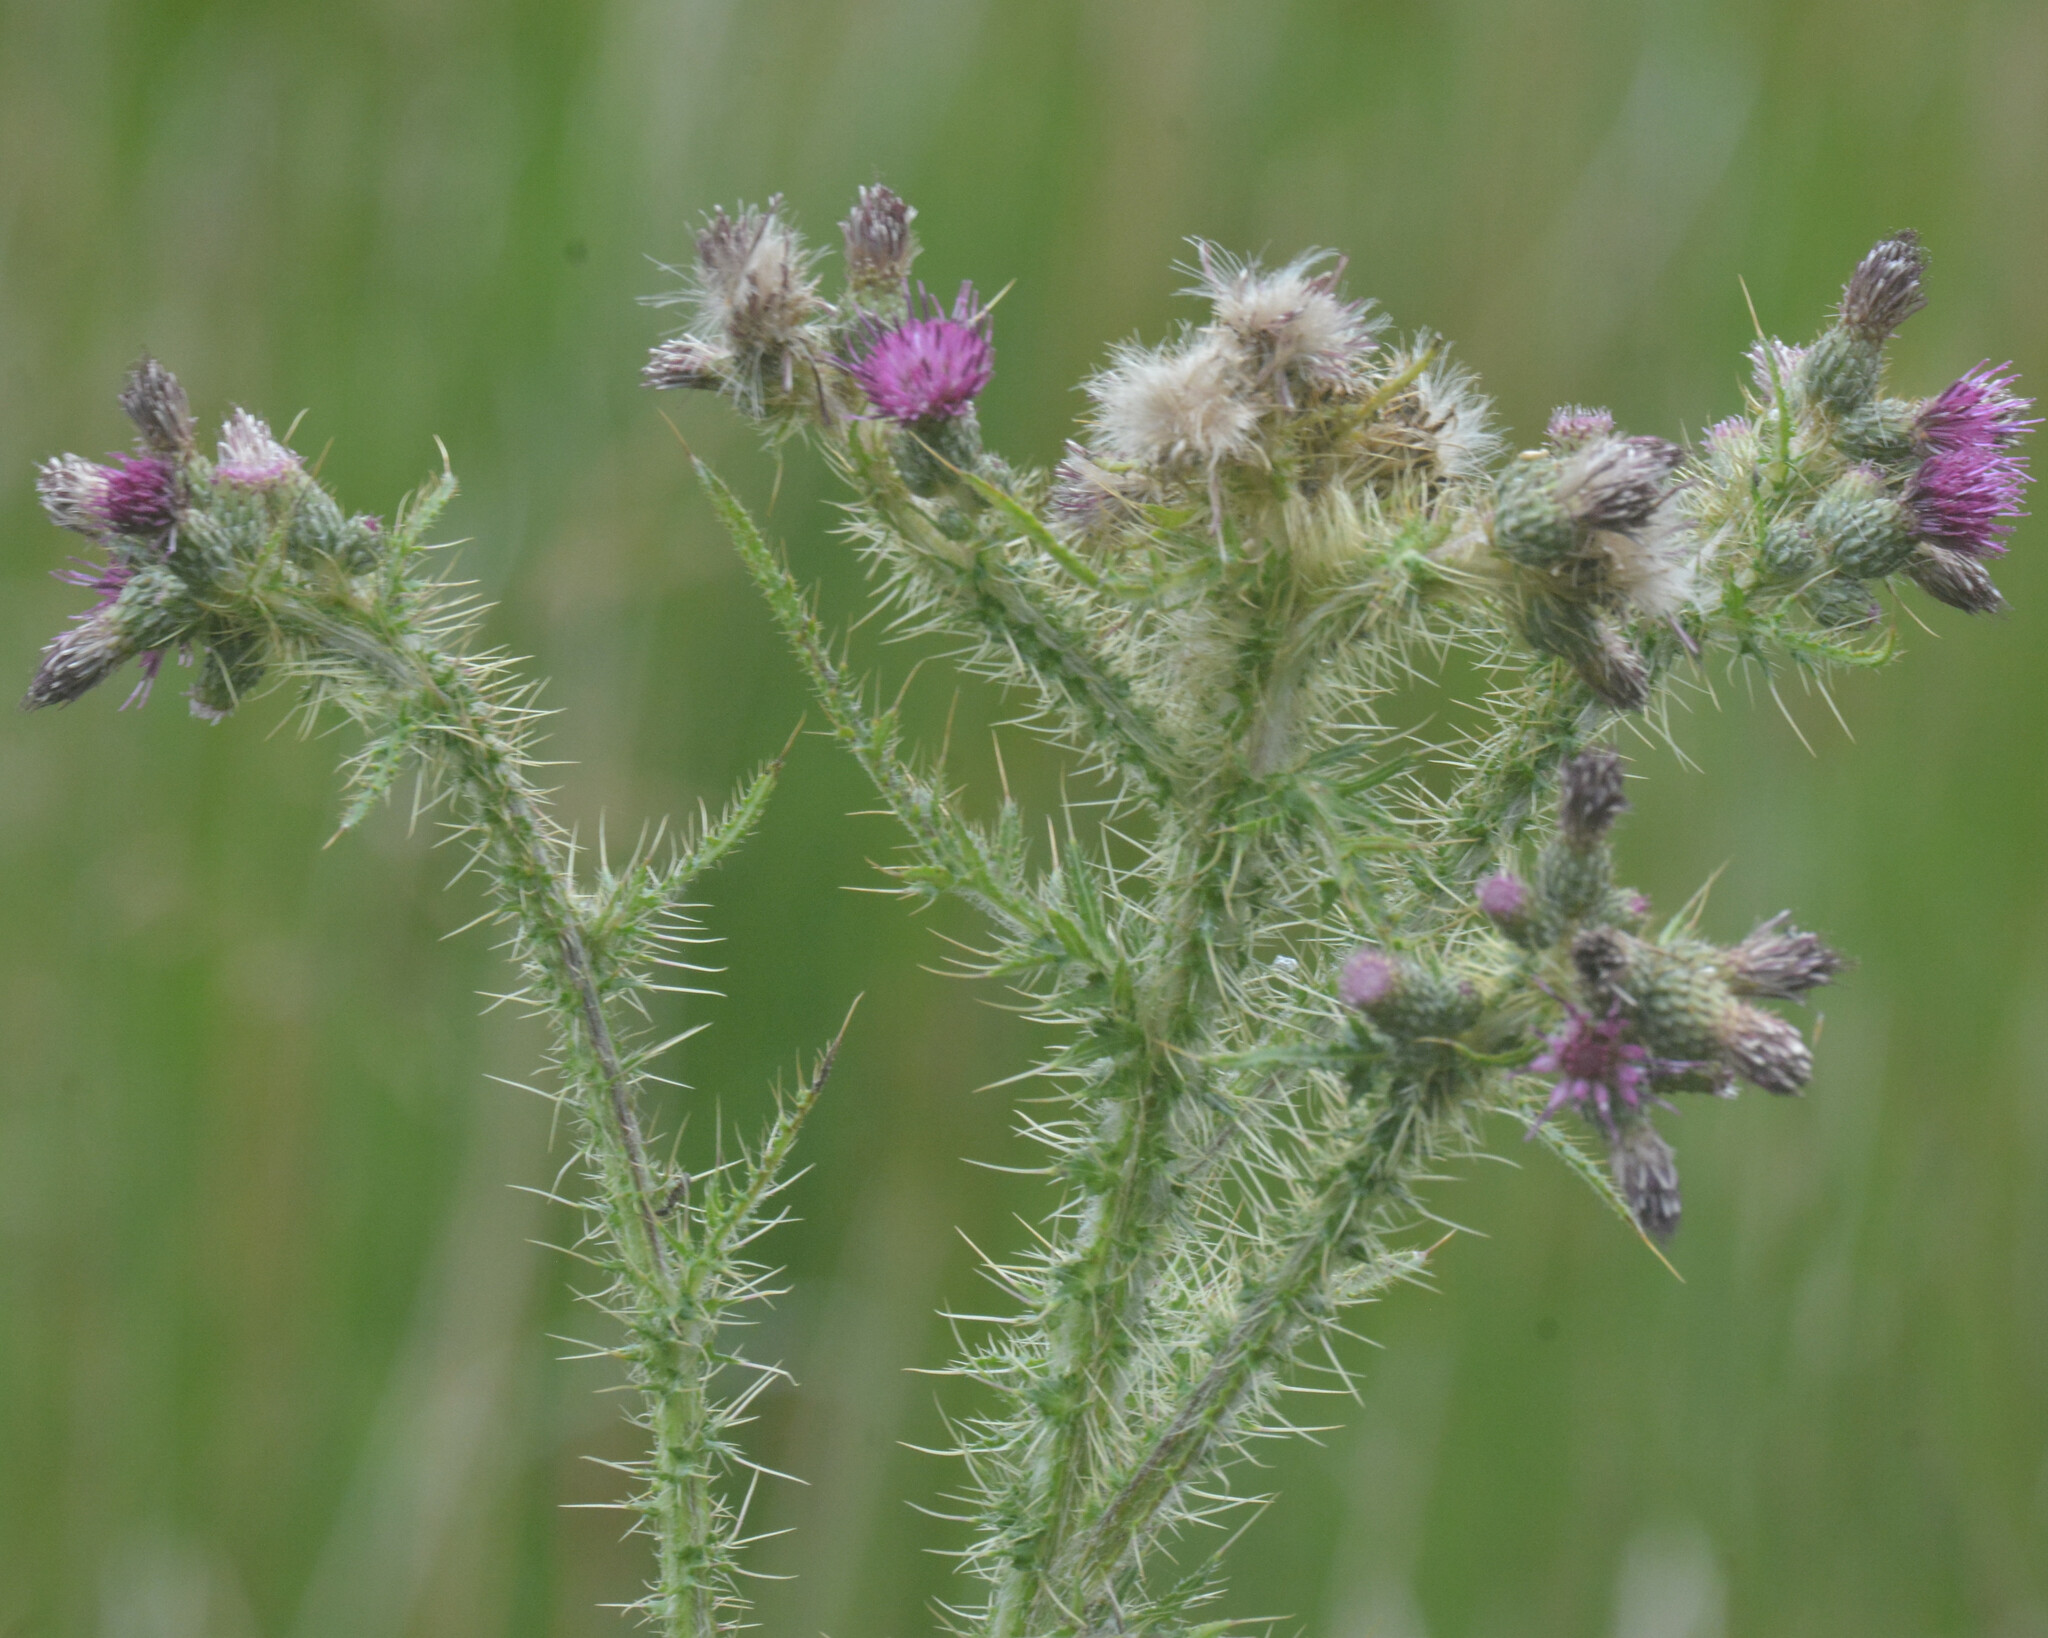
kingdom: Plantae
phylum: Tracheophyta
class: Magnoliopsida
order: Asterales
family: Asteraceae
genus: Cirsium
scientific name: Cirsium palustre
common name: Marsh thistle
